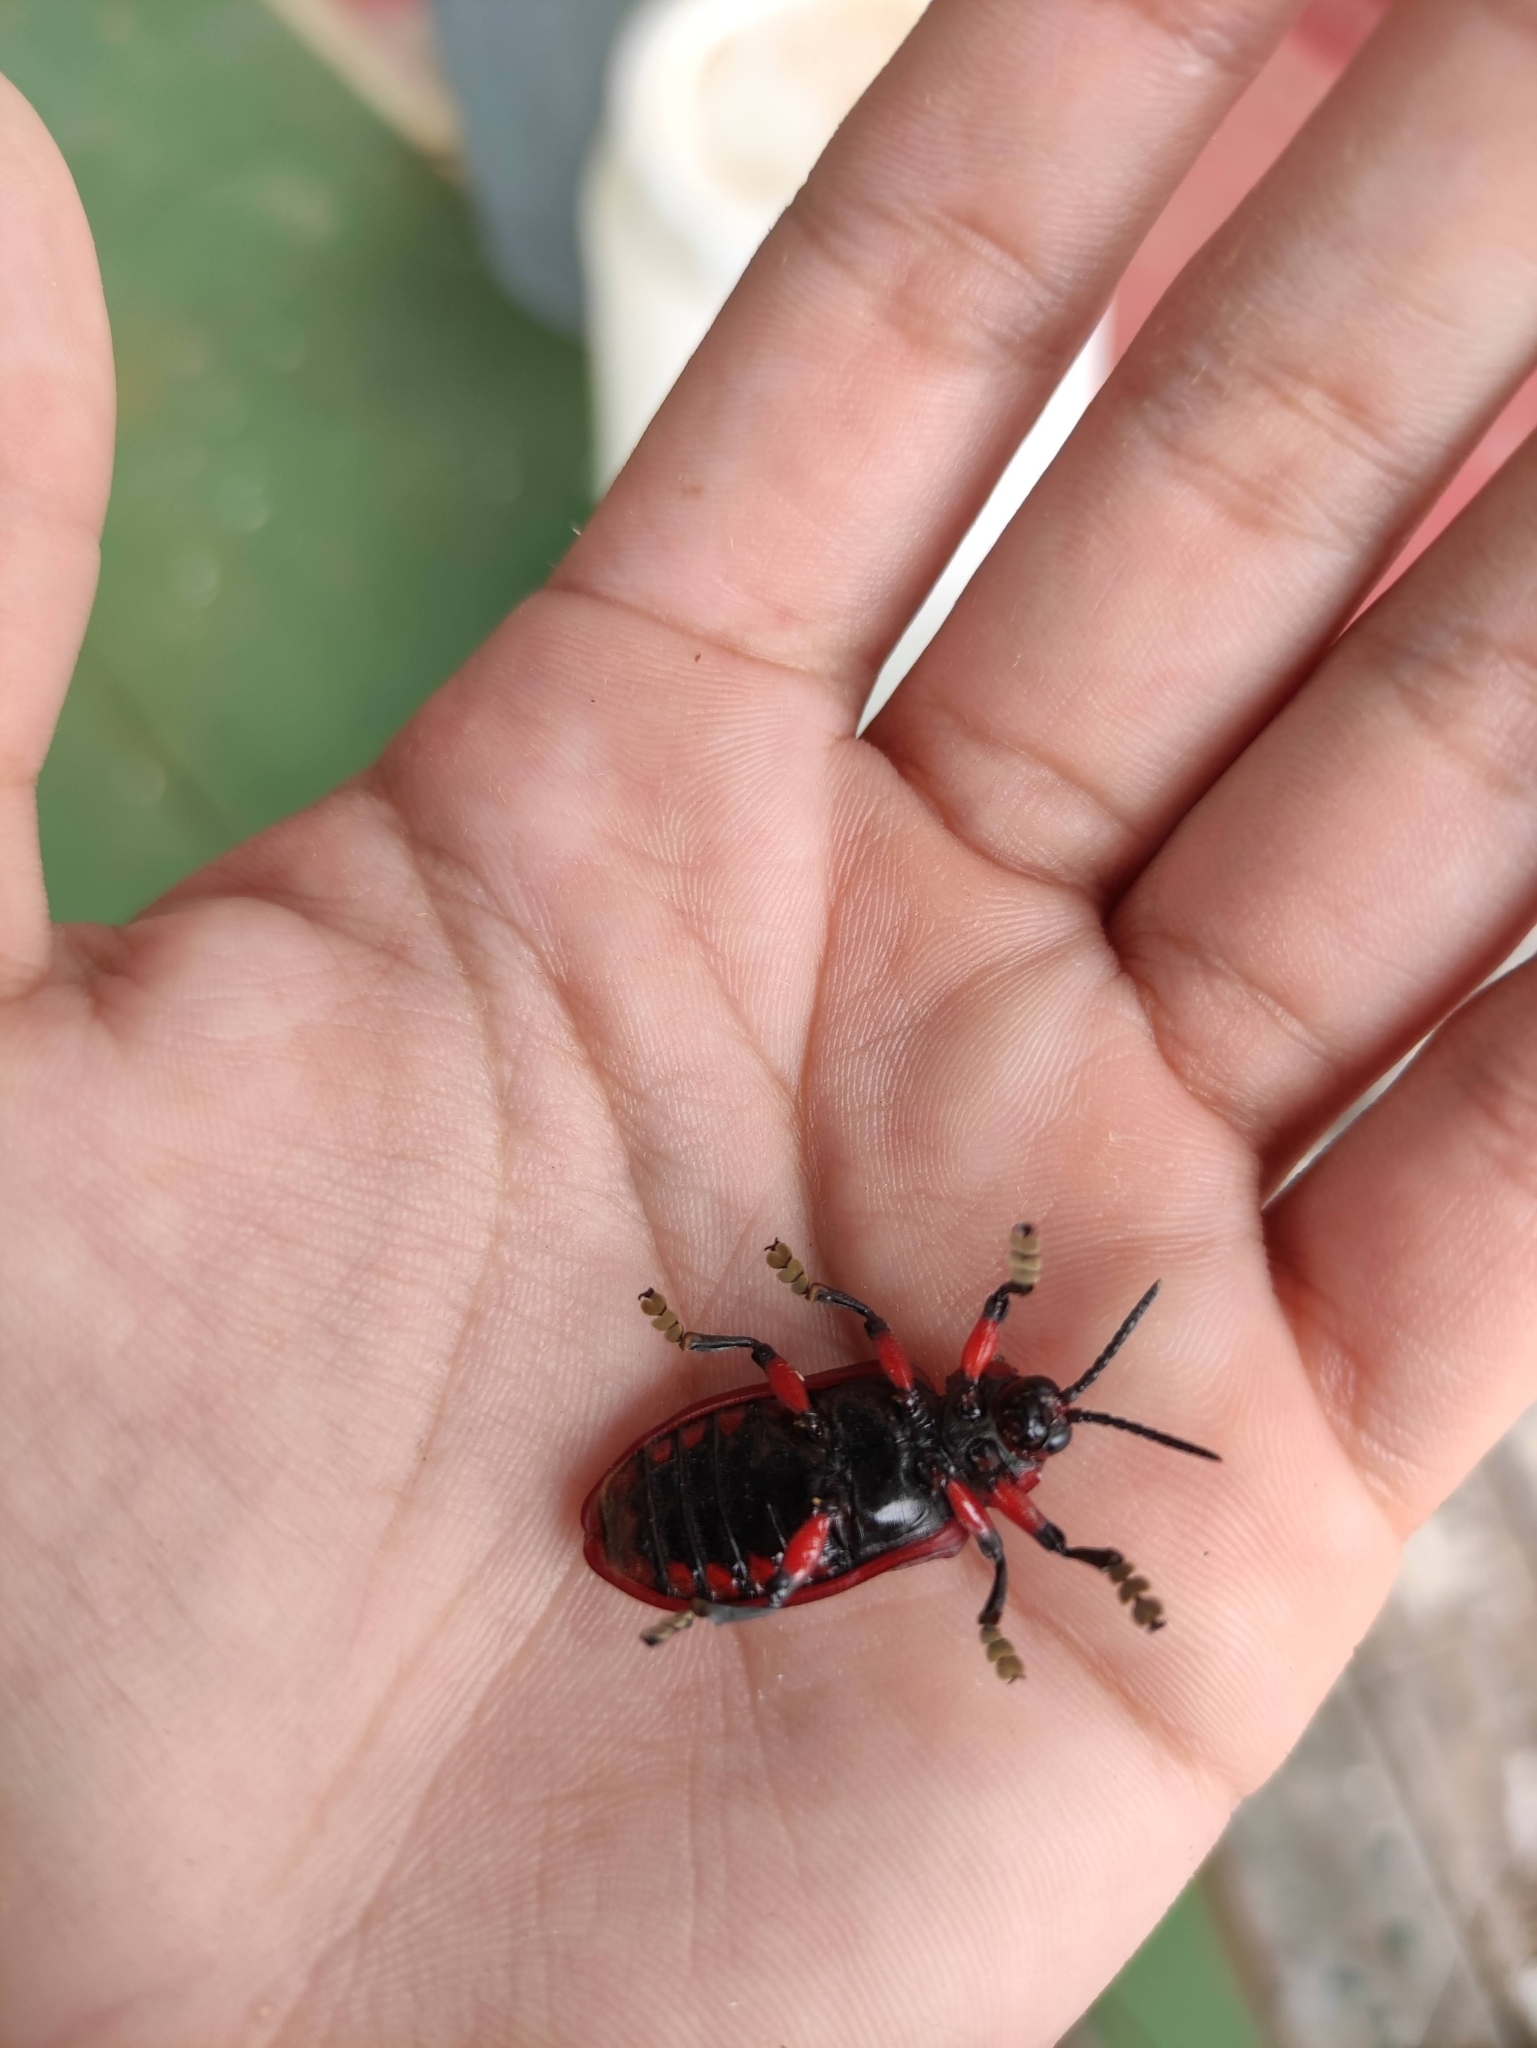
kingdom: Animalia
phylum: Arthropoda
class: Insecta
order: Coleoptera
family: Chrysomelidae
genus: Coraliomela
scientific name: Coraliomela brunnea
